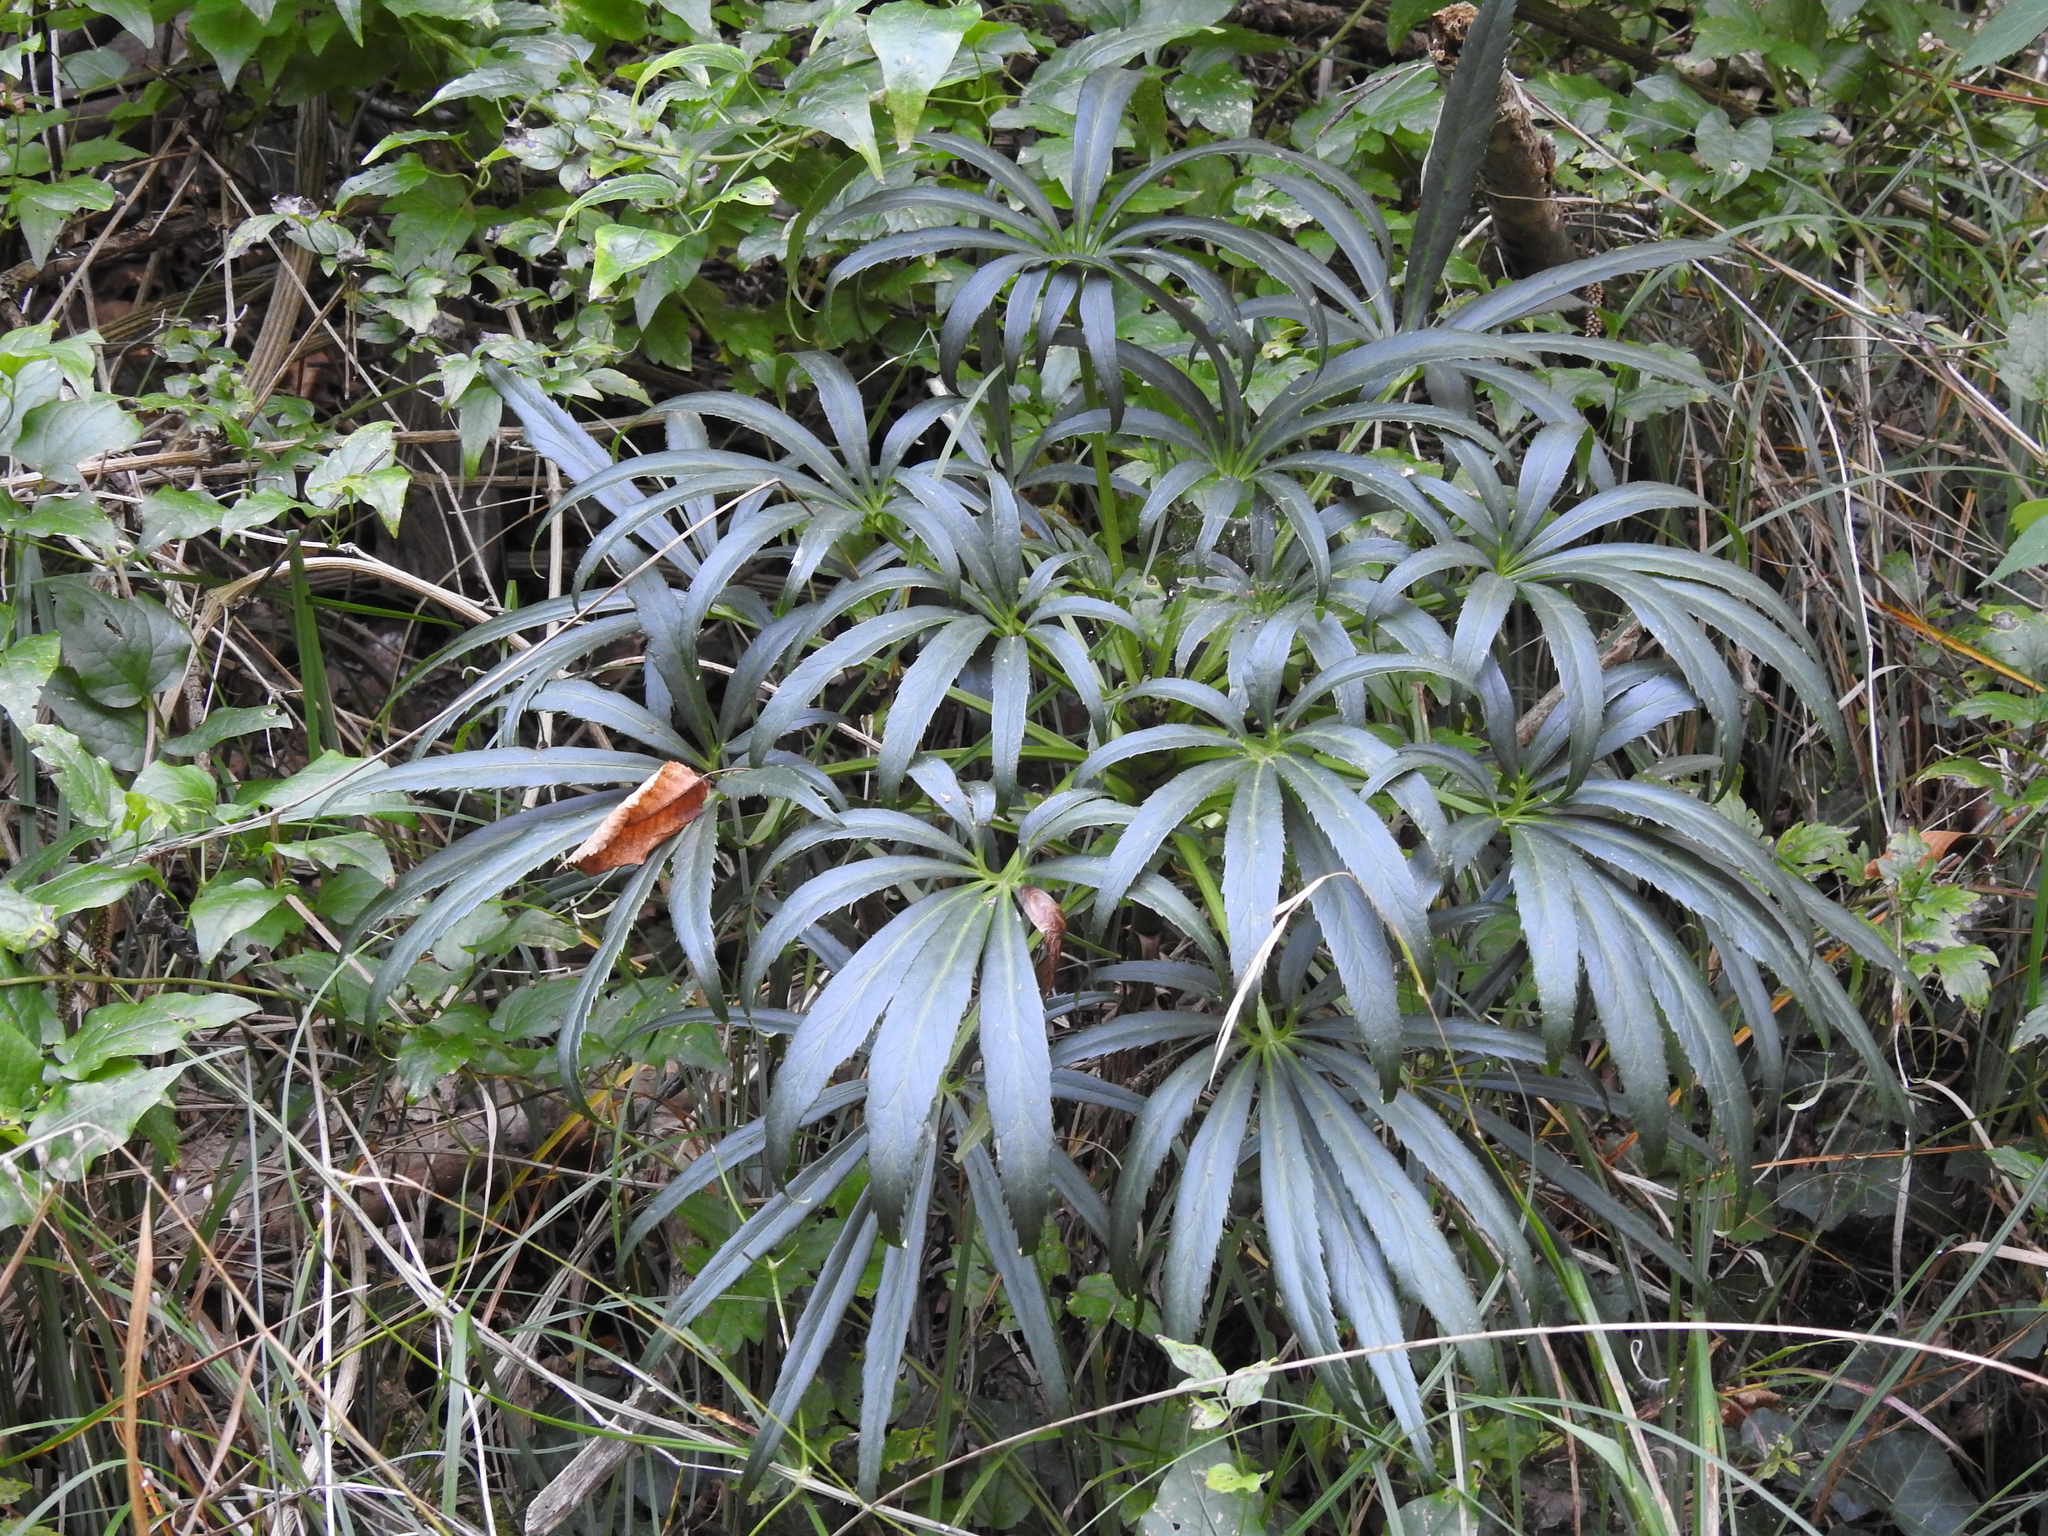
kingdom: Plantae
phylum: Tracheophyta
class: Magnoliopsida
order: Ranunculales
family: Ranunculaceae
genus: Helleborus
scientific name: Helleborus foetidus
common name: Stinking hellebore
